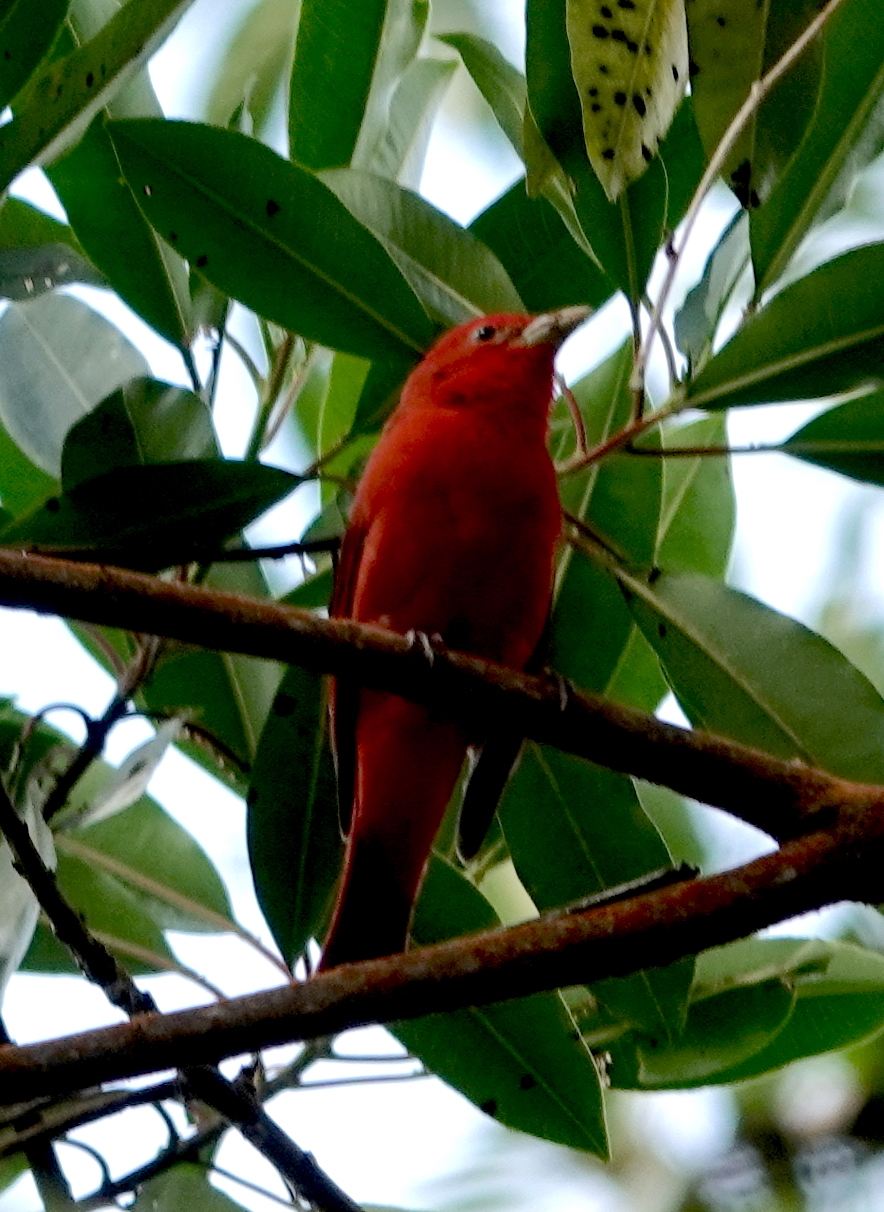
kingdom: Animalia
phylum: Chordata
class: Aves
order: Passeriformes
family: Cardinalidae
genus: Piranga
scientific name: Piranga rubra
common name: Summer tanager
